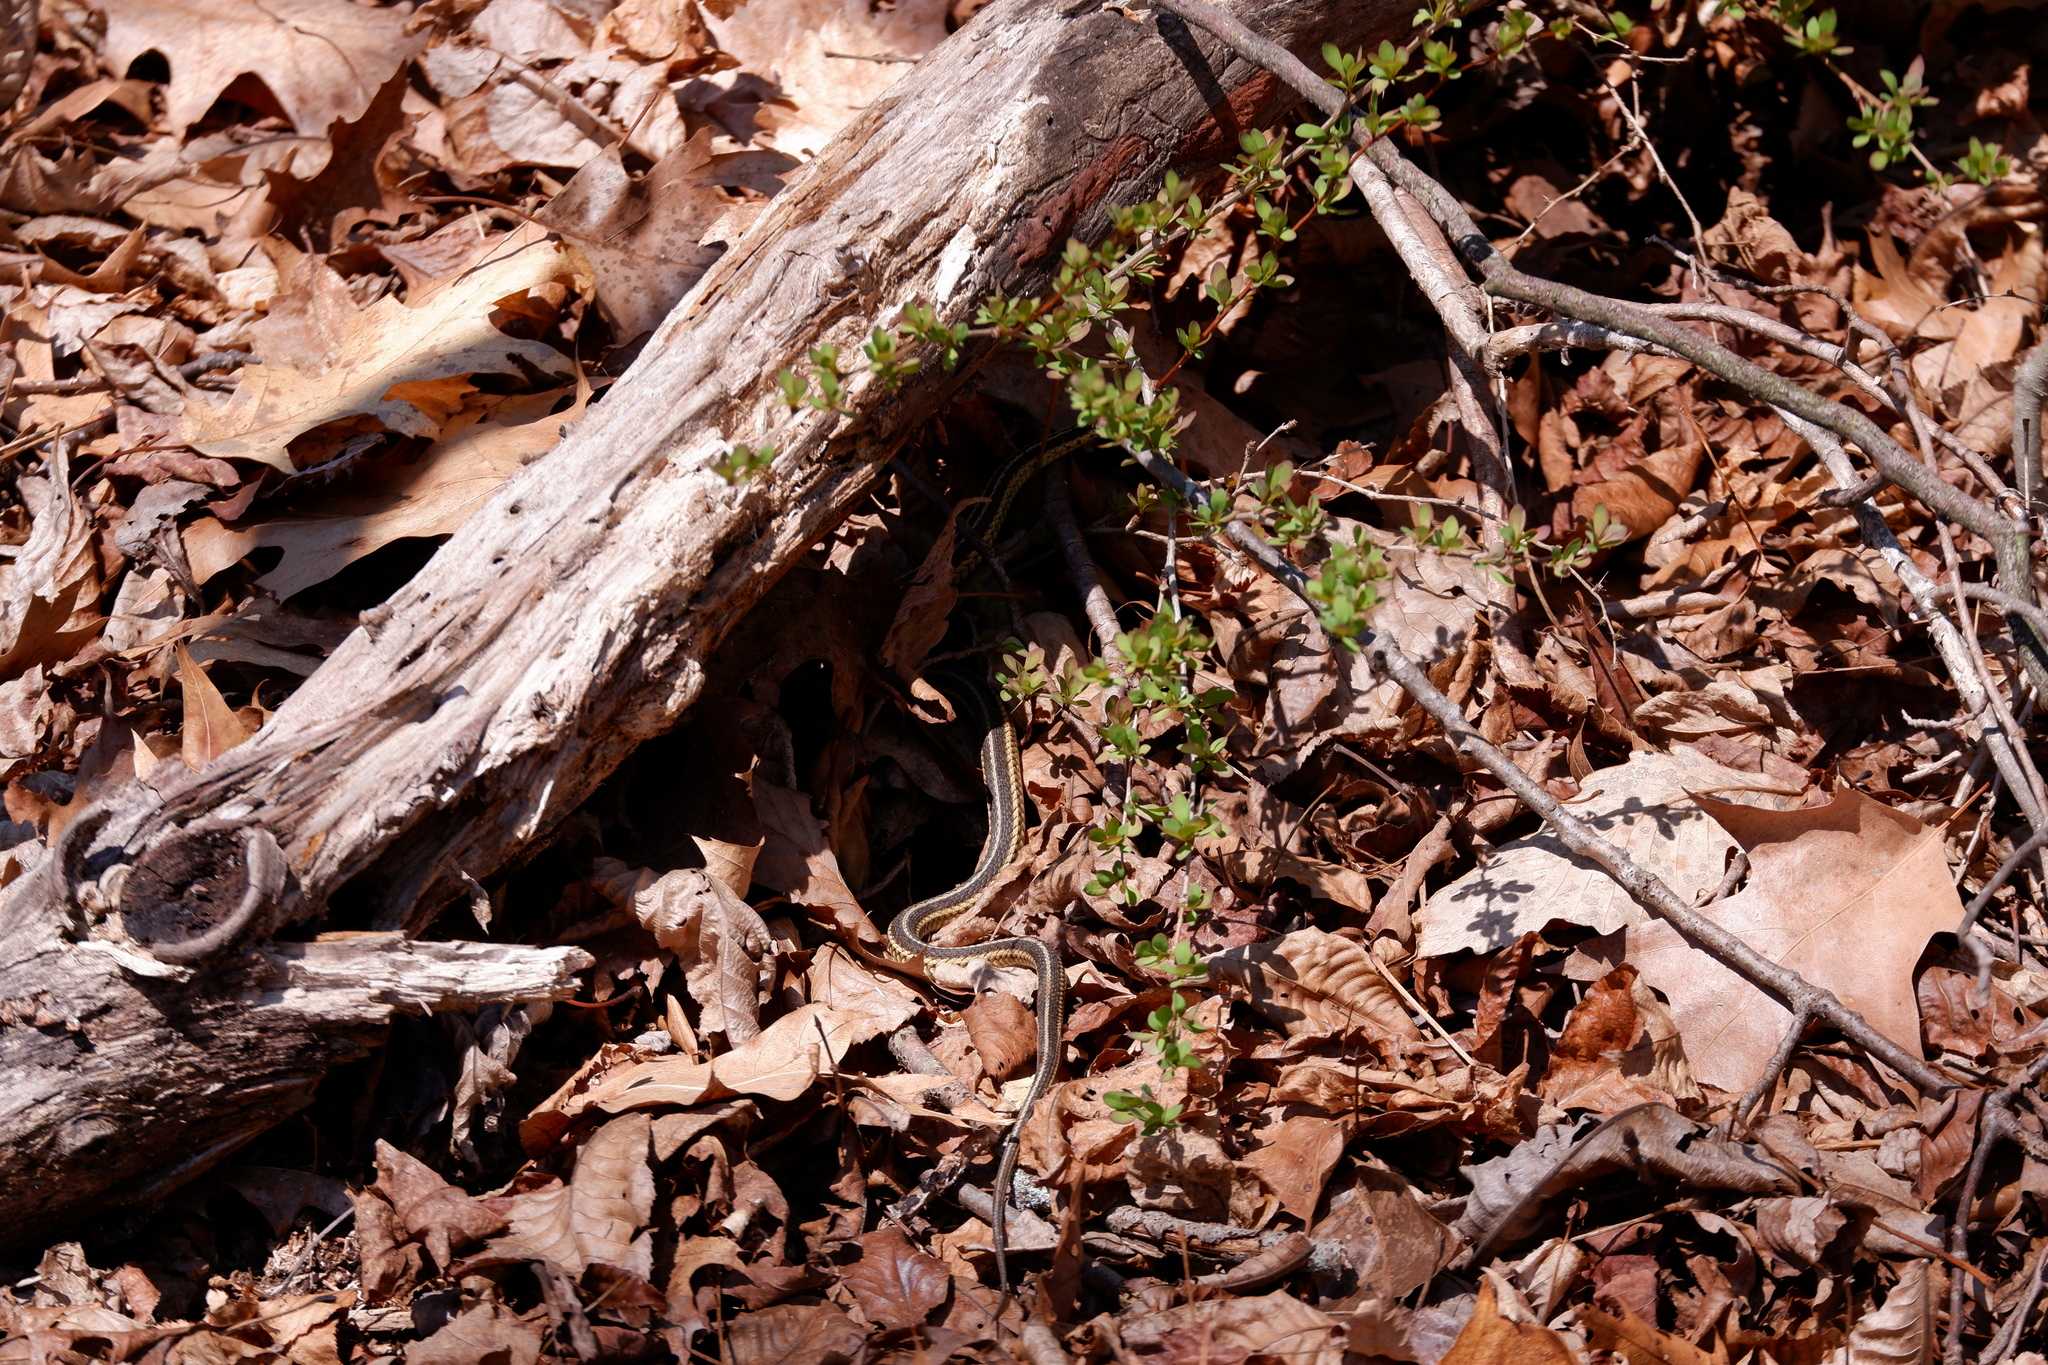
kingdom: Animalia
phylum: Chordata
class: Squamata
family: Colubridae
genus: Thamnophis
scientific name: Thamnophis sirtalis
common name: Common garter snake
